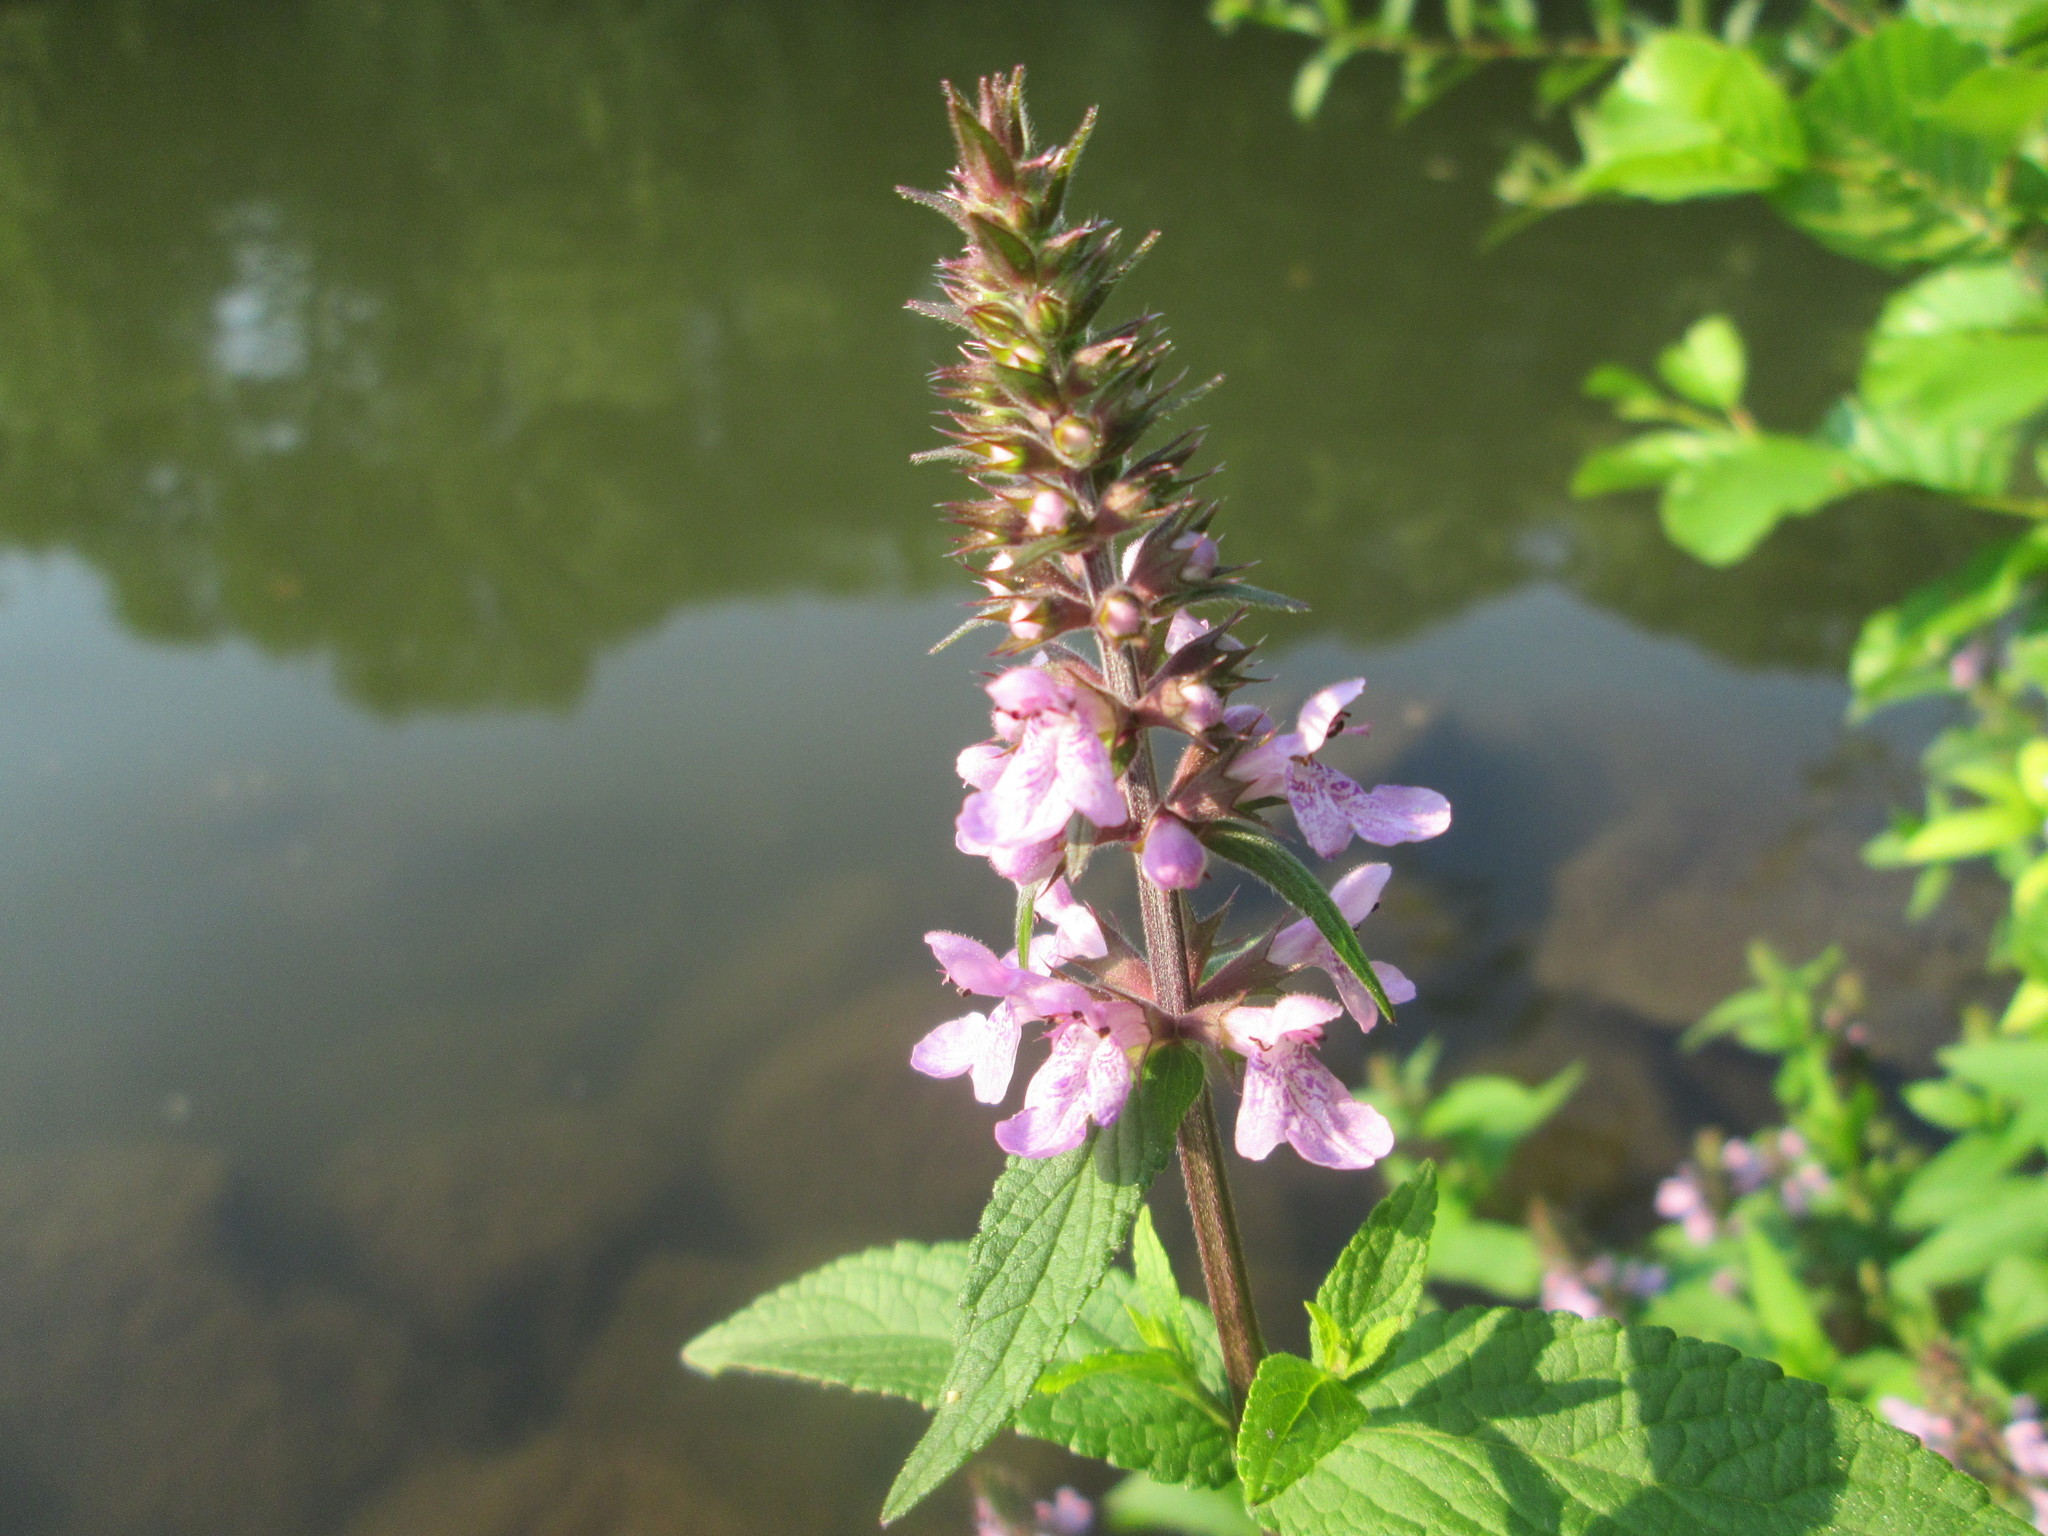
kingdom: Plantae
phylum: Tracheophyta
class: Magnoliopsida
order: Lamiales
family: Lamiaceae
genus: Stachys
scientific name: Stachys palustris
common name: Marsh woundwort
